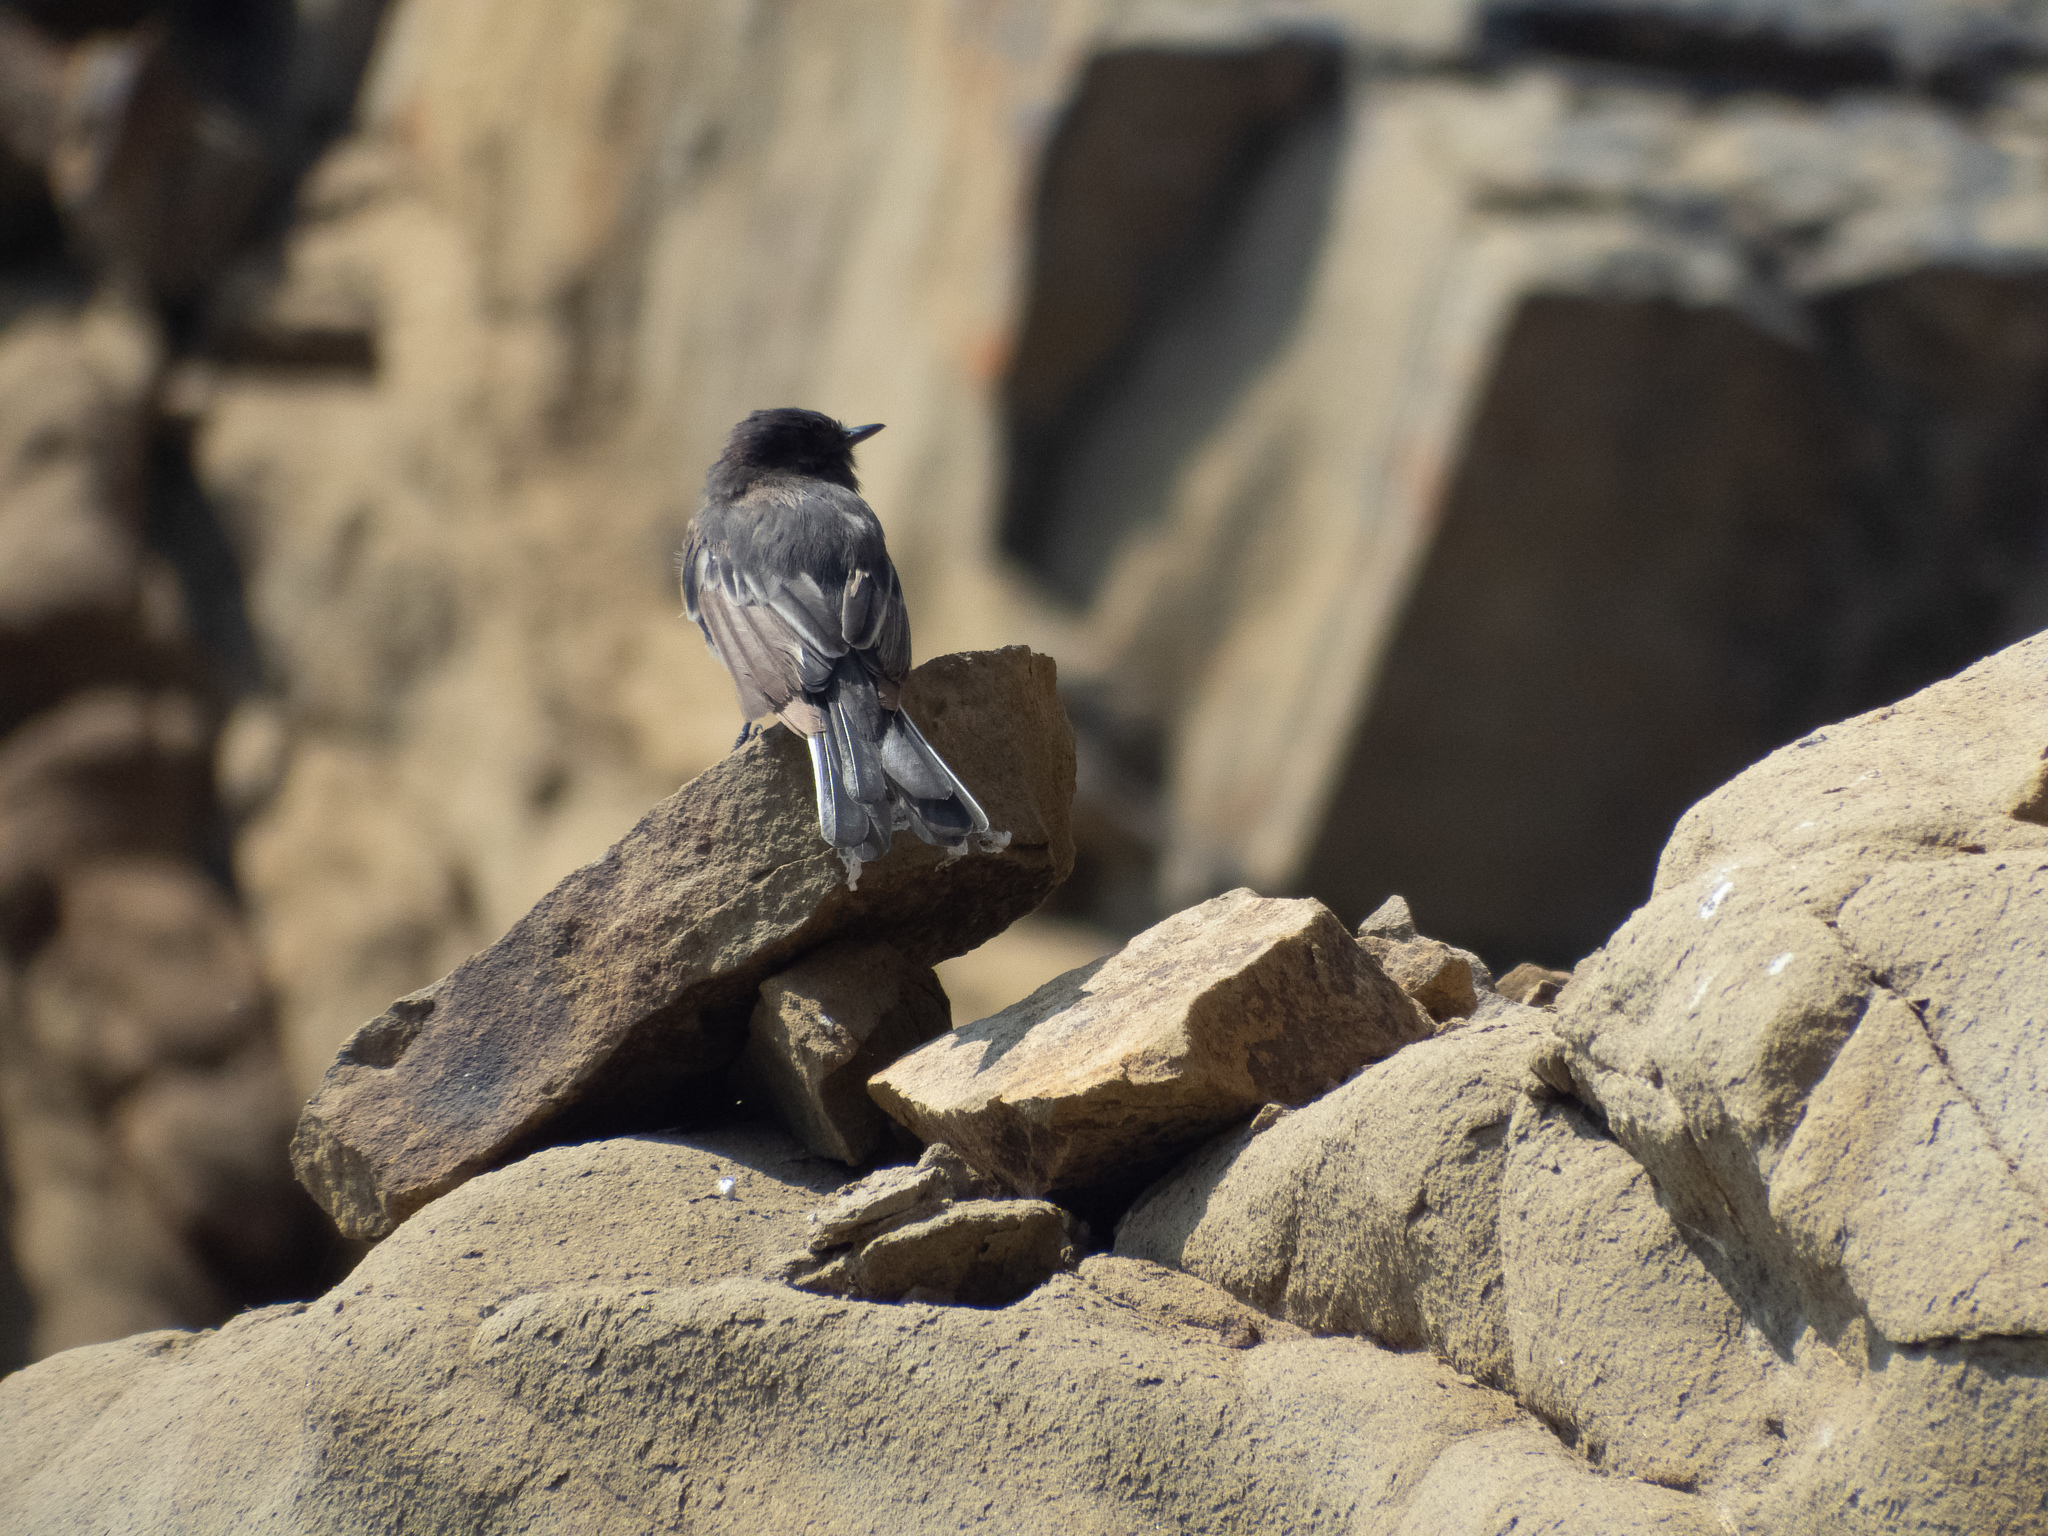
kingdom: Animalia
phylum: Chordata
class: Aves
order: Passeriformes
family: Tyrannidae
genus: Sayornis
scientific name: Sayornis nigricans
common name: Black phoebe
